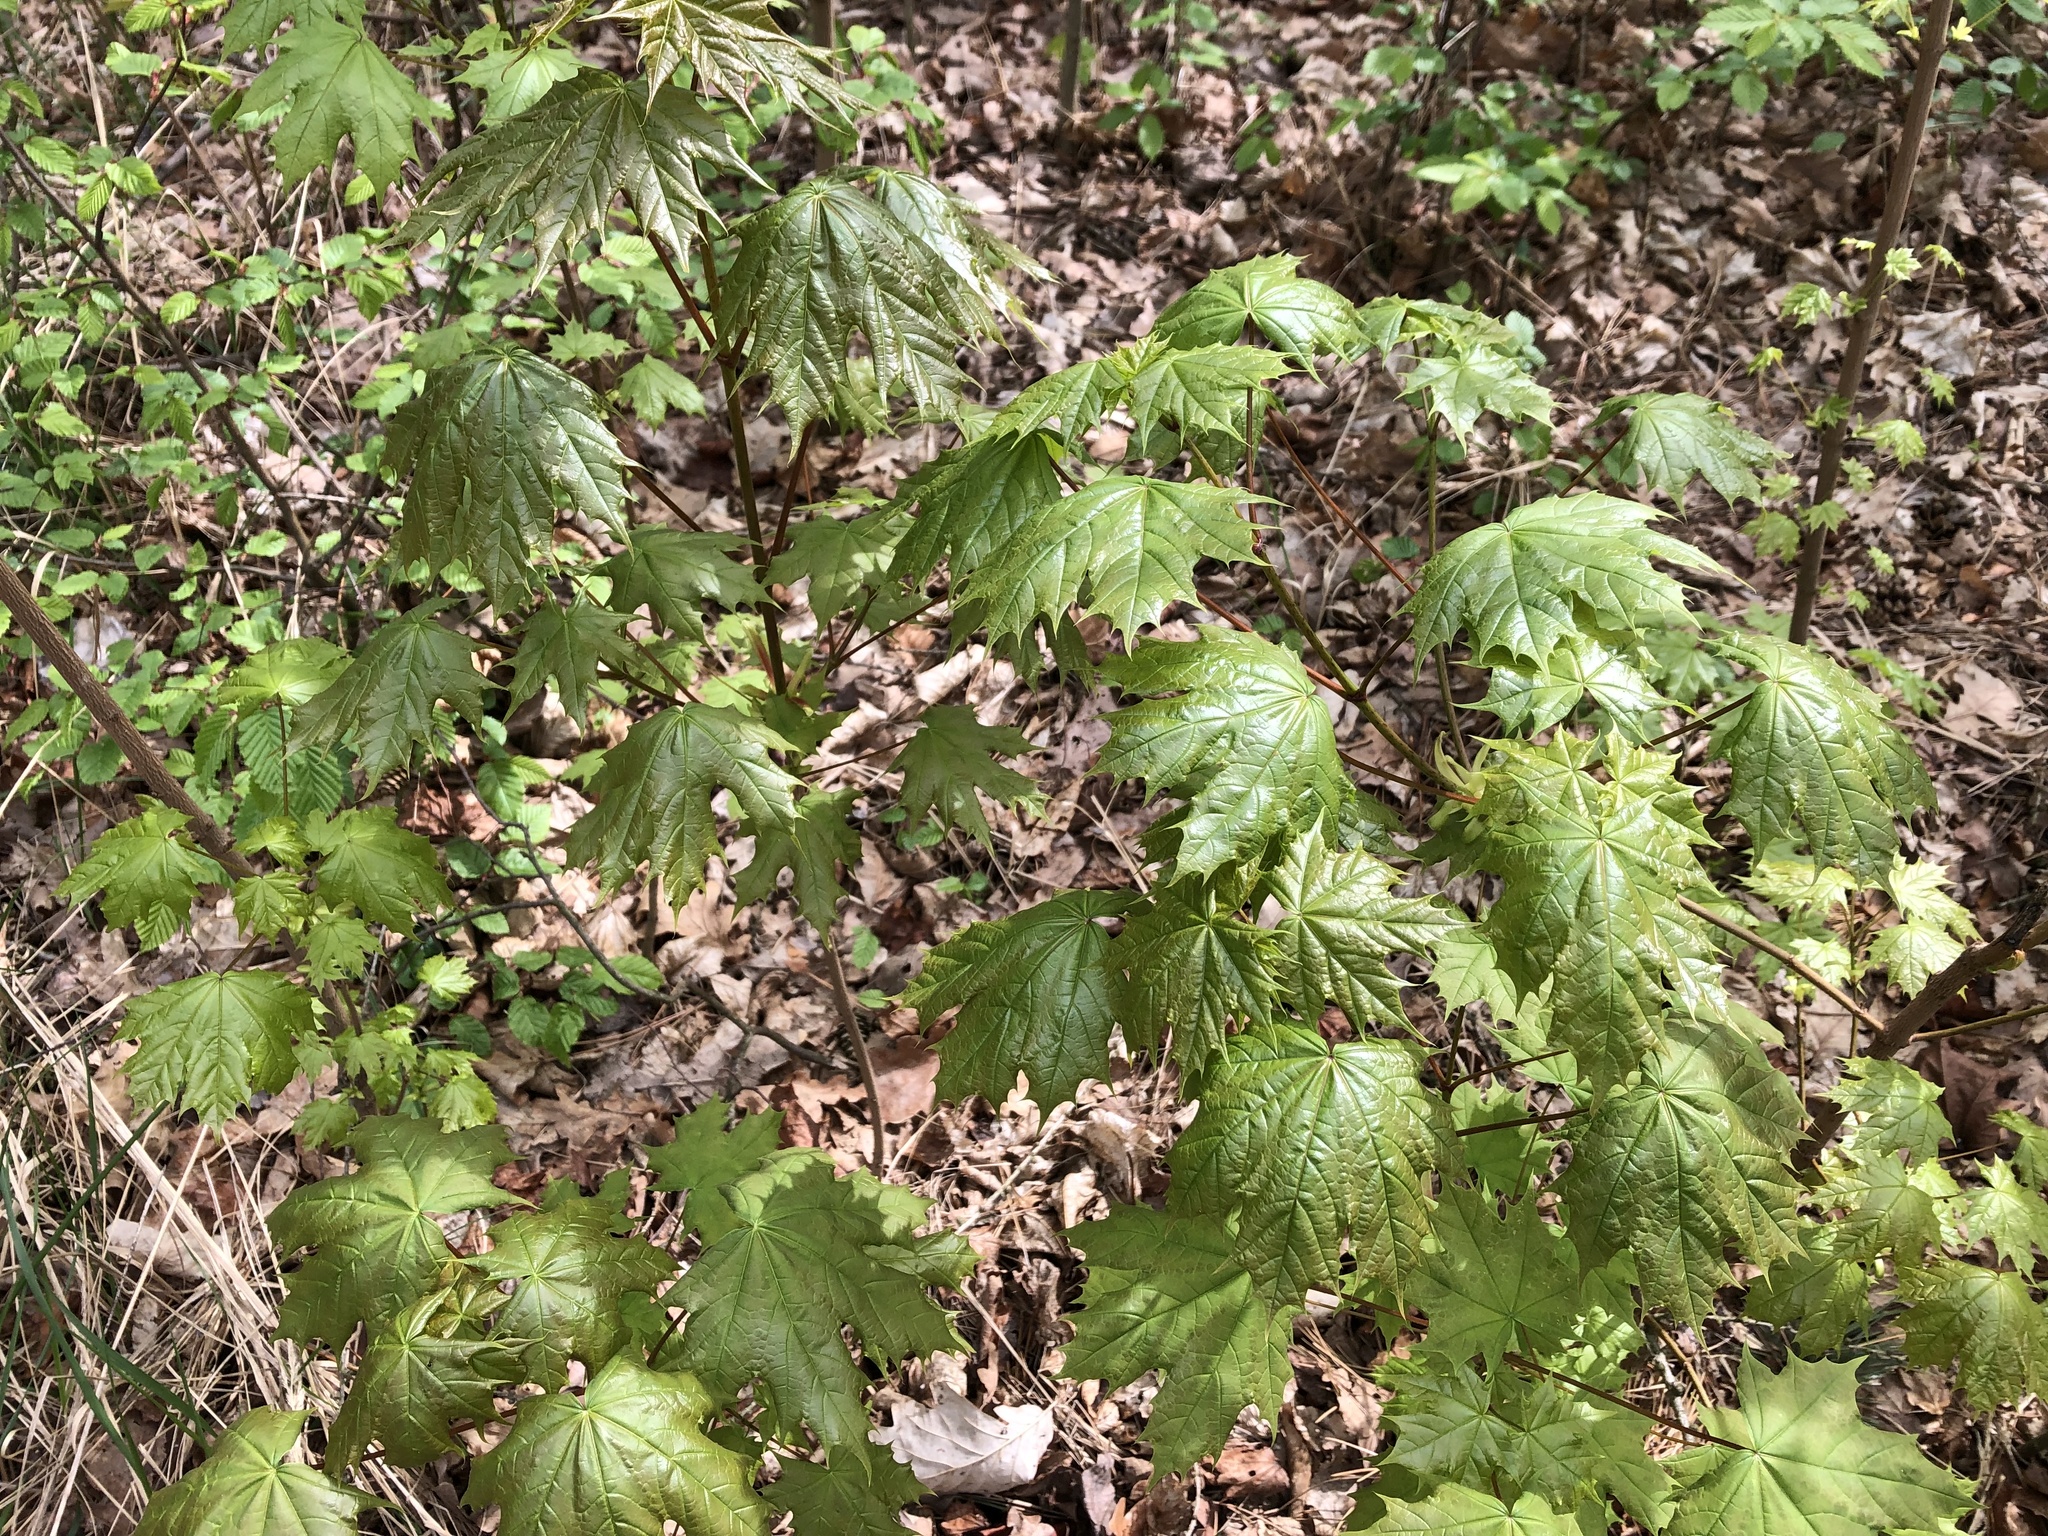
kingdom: Plantae
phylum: Tracheophyta
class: Magnoliopsida
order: Sapindales
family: Sapindaceae
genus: Acer
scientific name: Acer platanoides
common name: Norway maple
